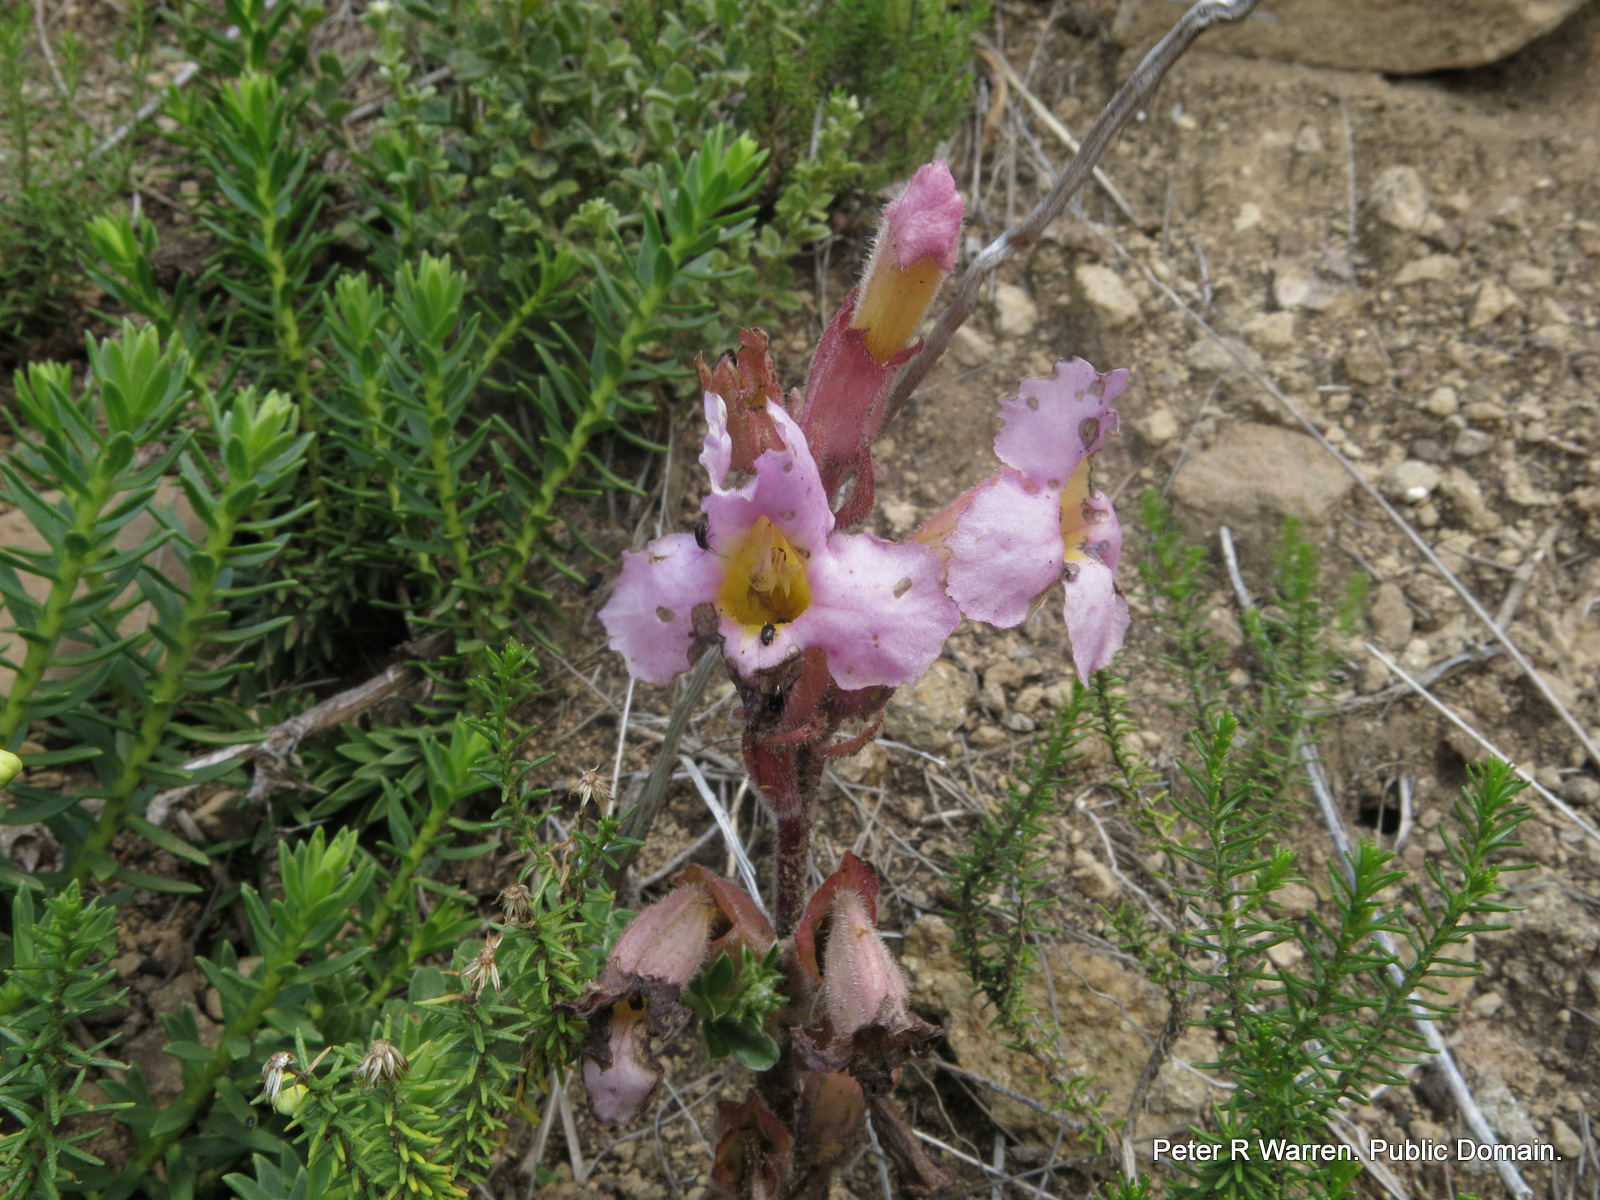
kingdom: Plantae
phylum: Tracheophyta
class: Magnoliopsida
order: Lamiales
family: Orobanchaceae
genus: Harveya
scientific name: Harveya huttonii
